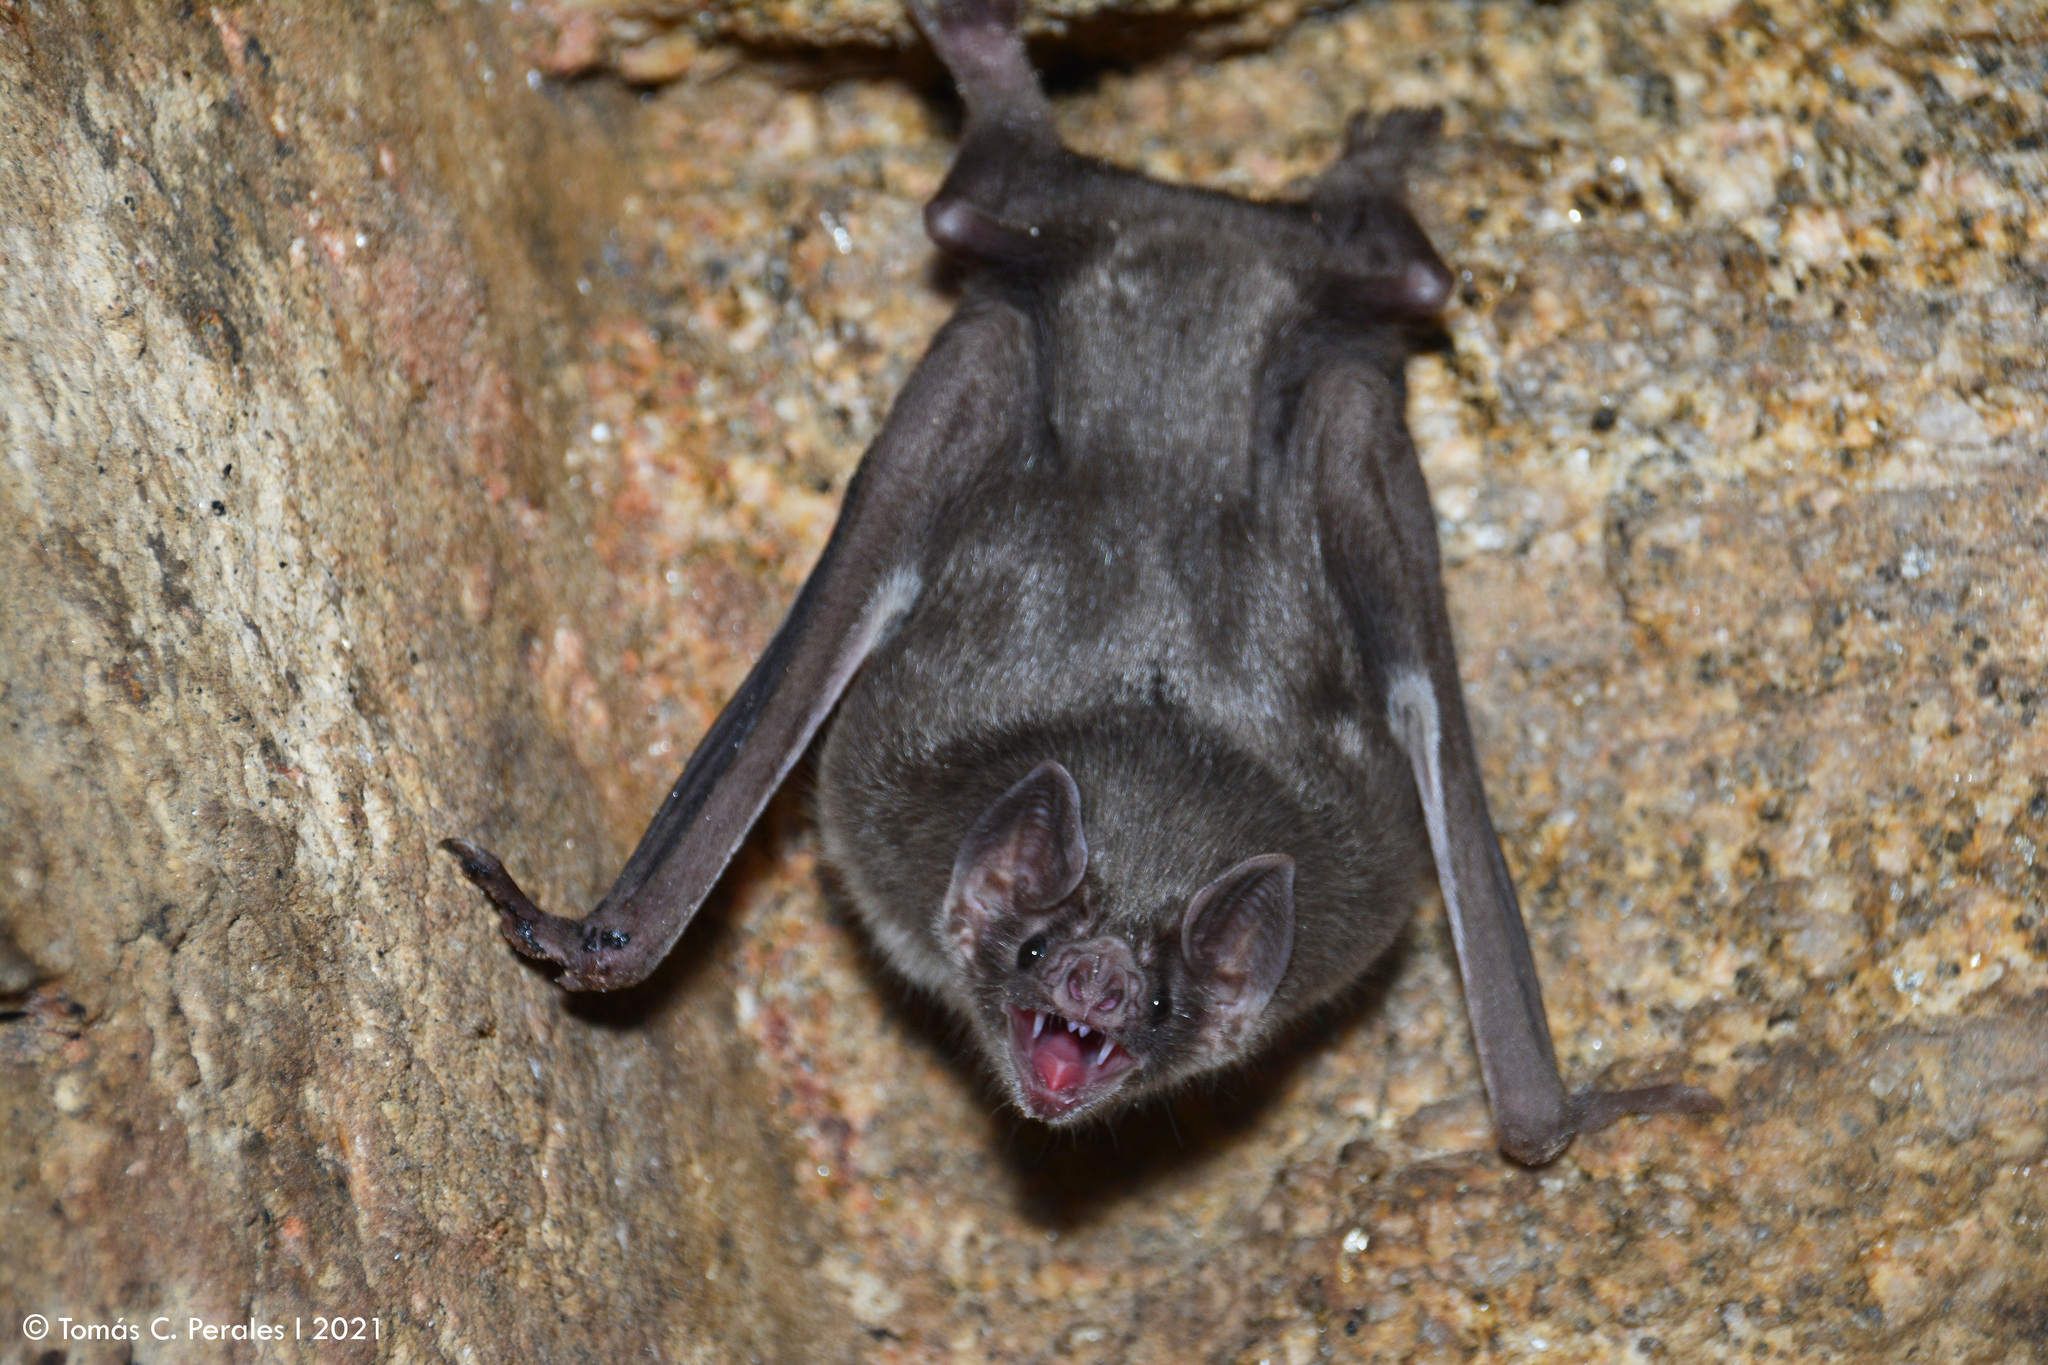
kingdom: Animalia
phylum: Chordata
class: Mammalia
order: Chiroptera
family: Phyllostomidae
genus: Desmodus
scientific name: Desmodus rotundus
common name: Common vampire bat
